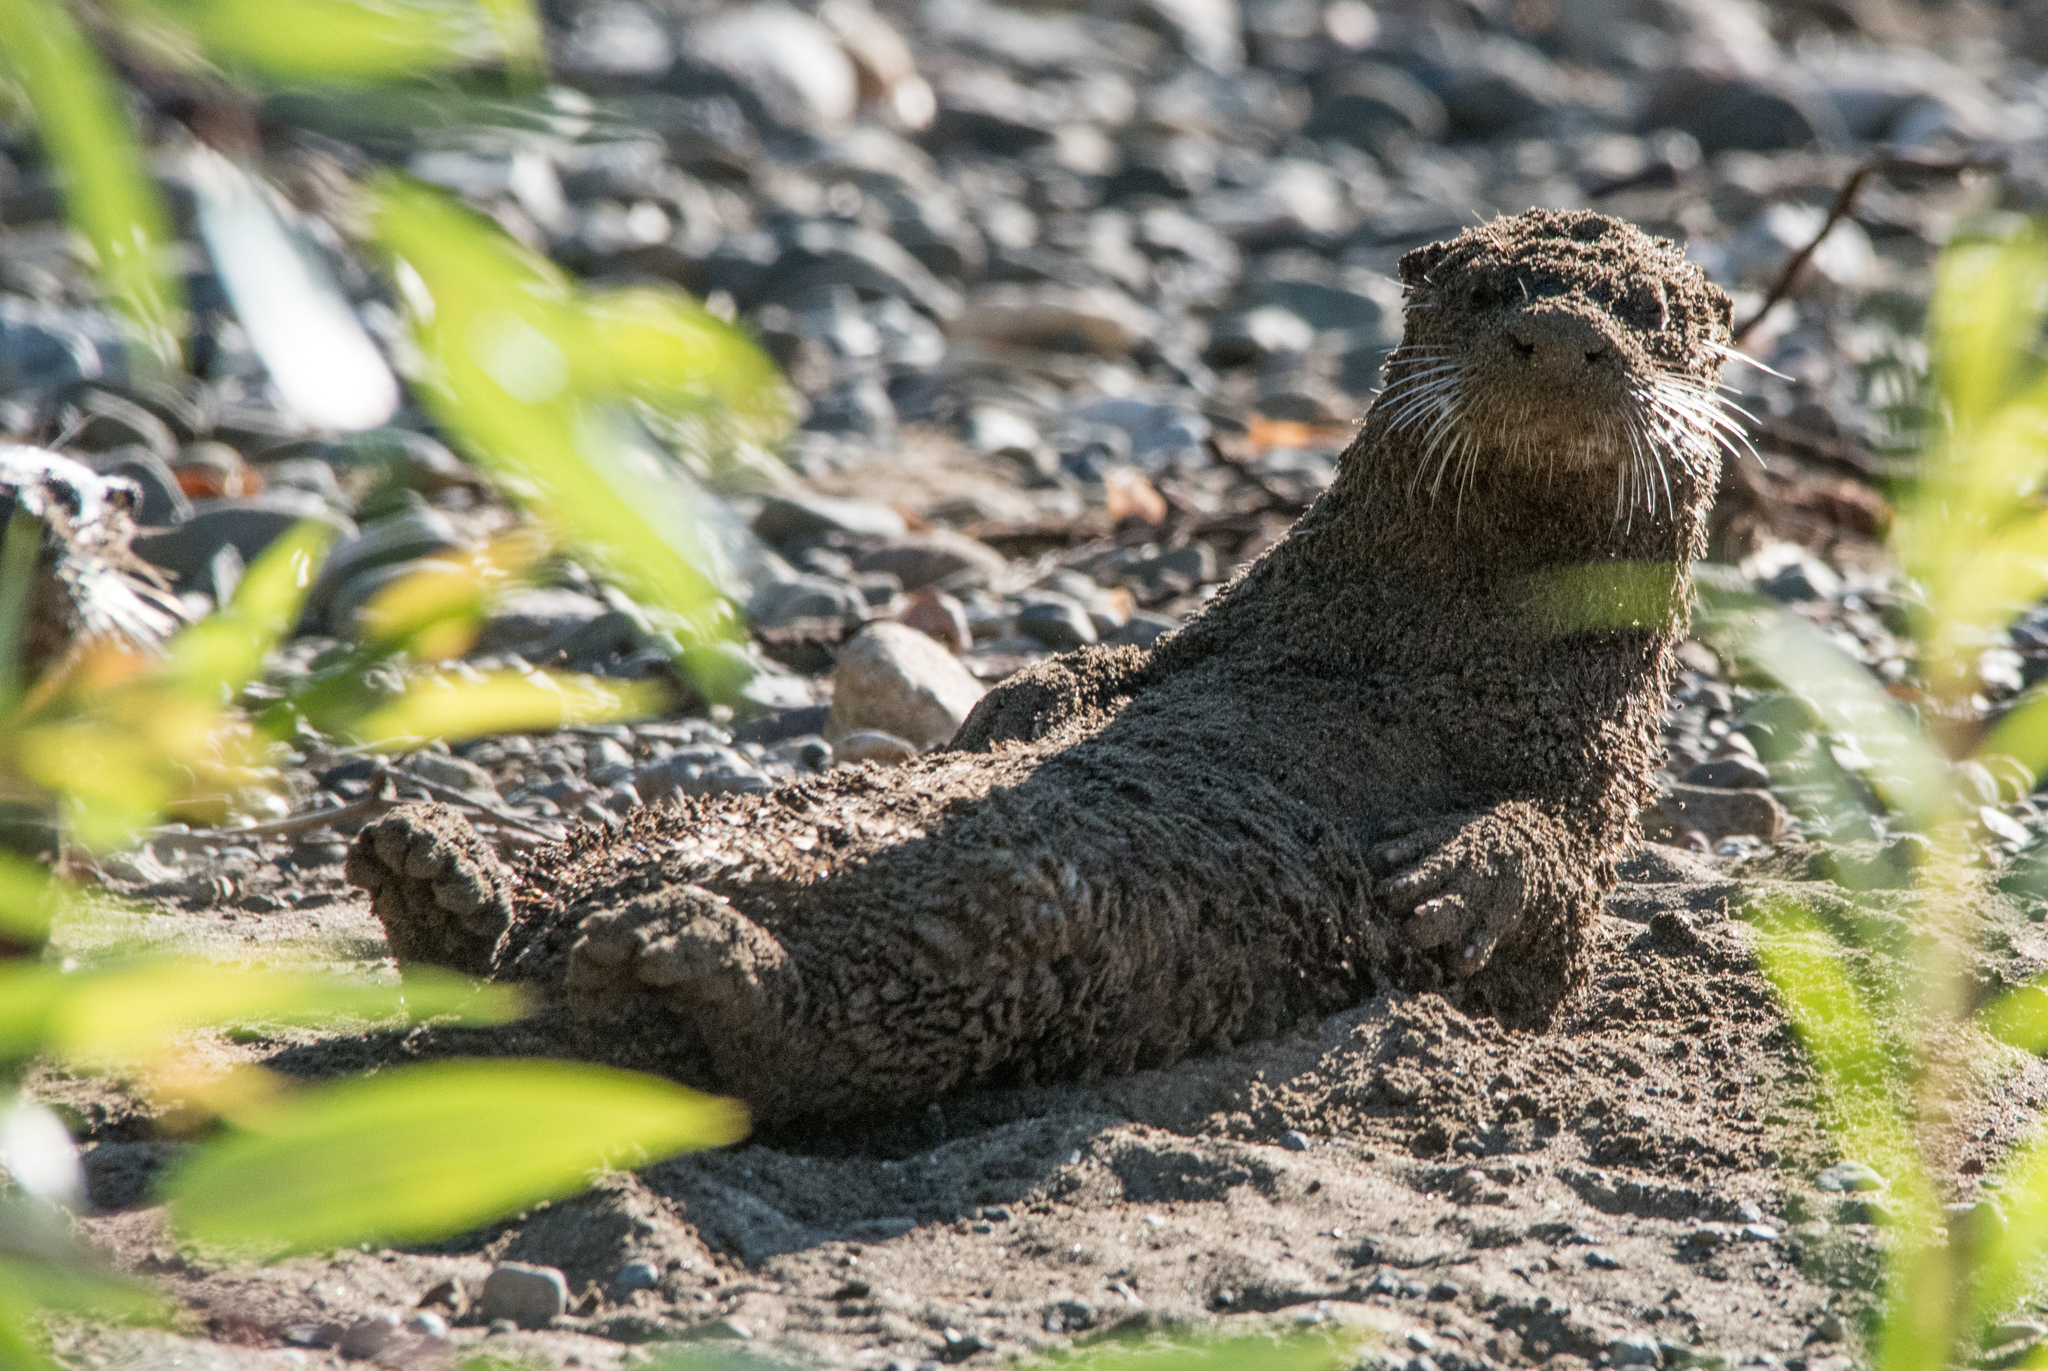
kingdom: Animalia
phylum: Chordata
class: Mammalia
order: Carnivora
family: Mustelidae
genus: Lontra
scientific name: Lontra canadensis
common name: North american river otter
